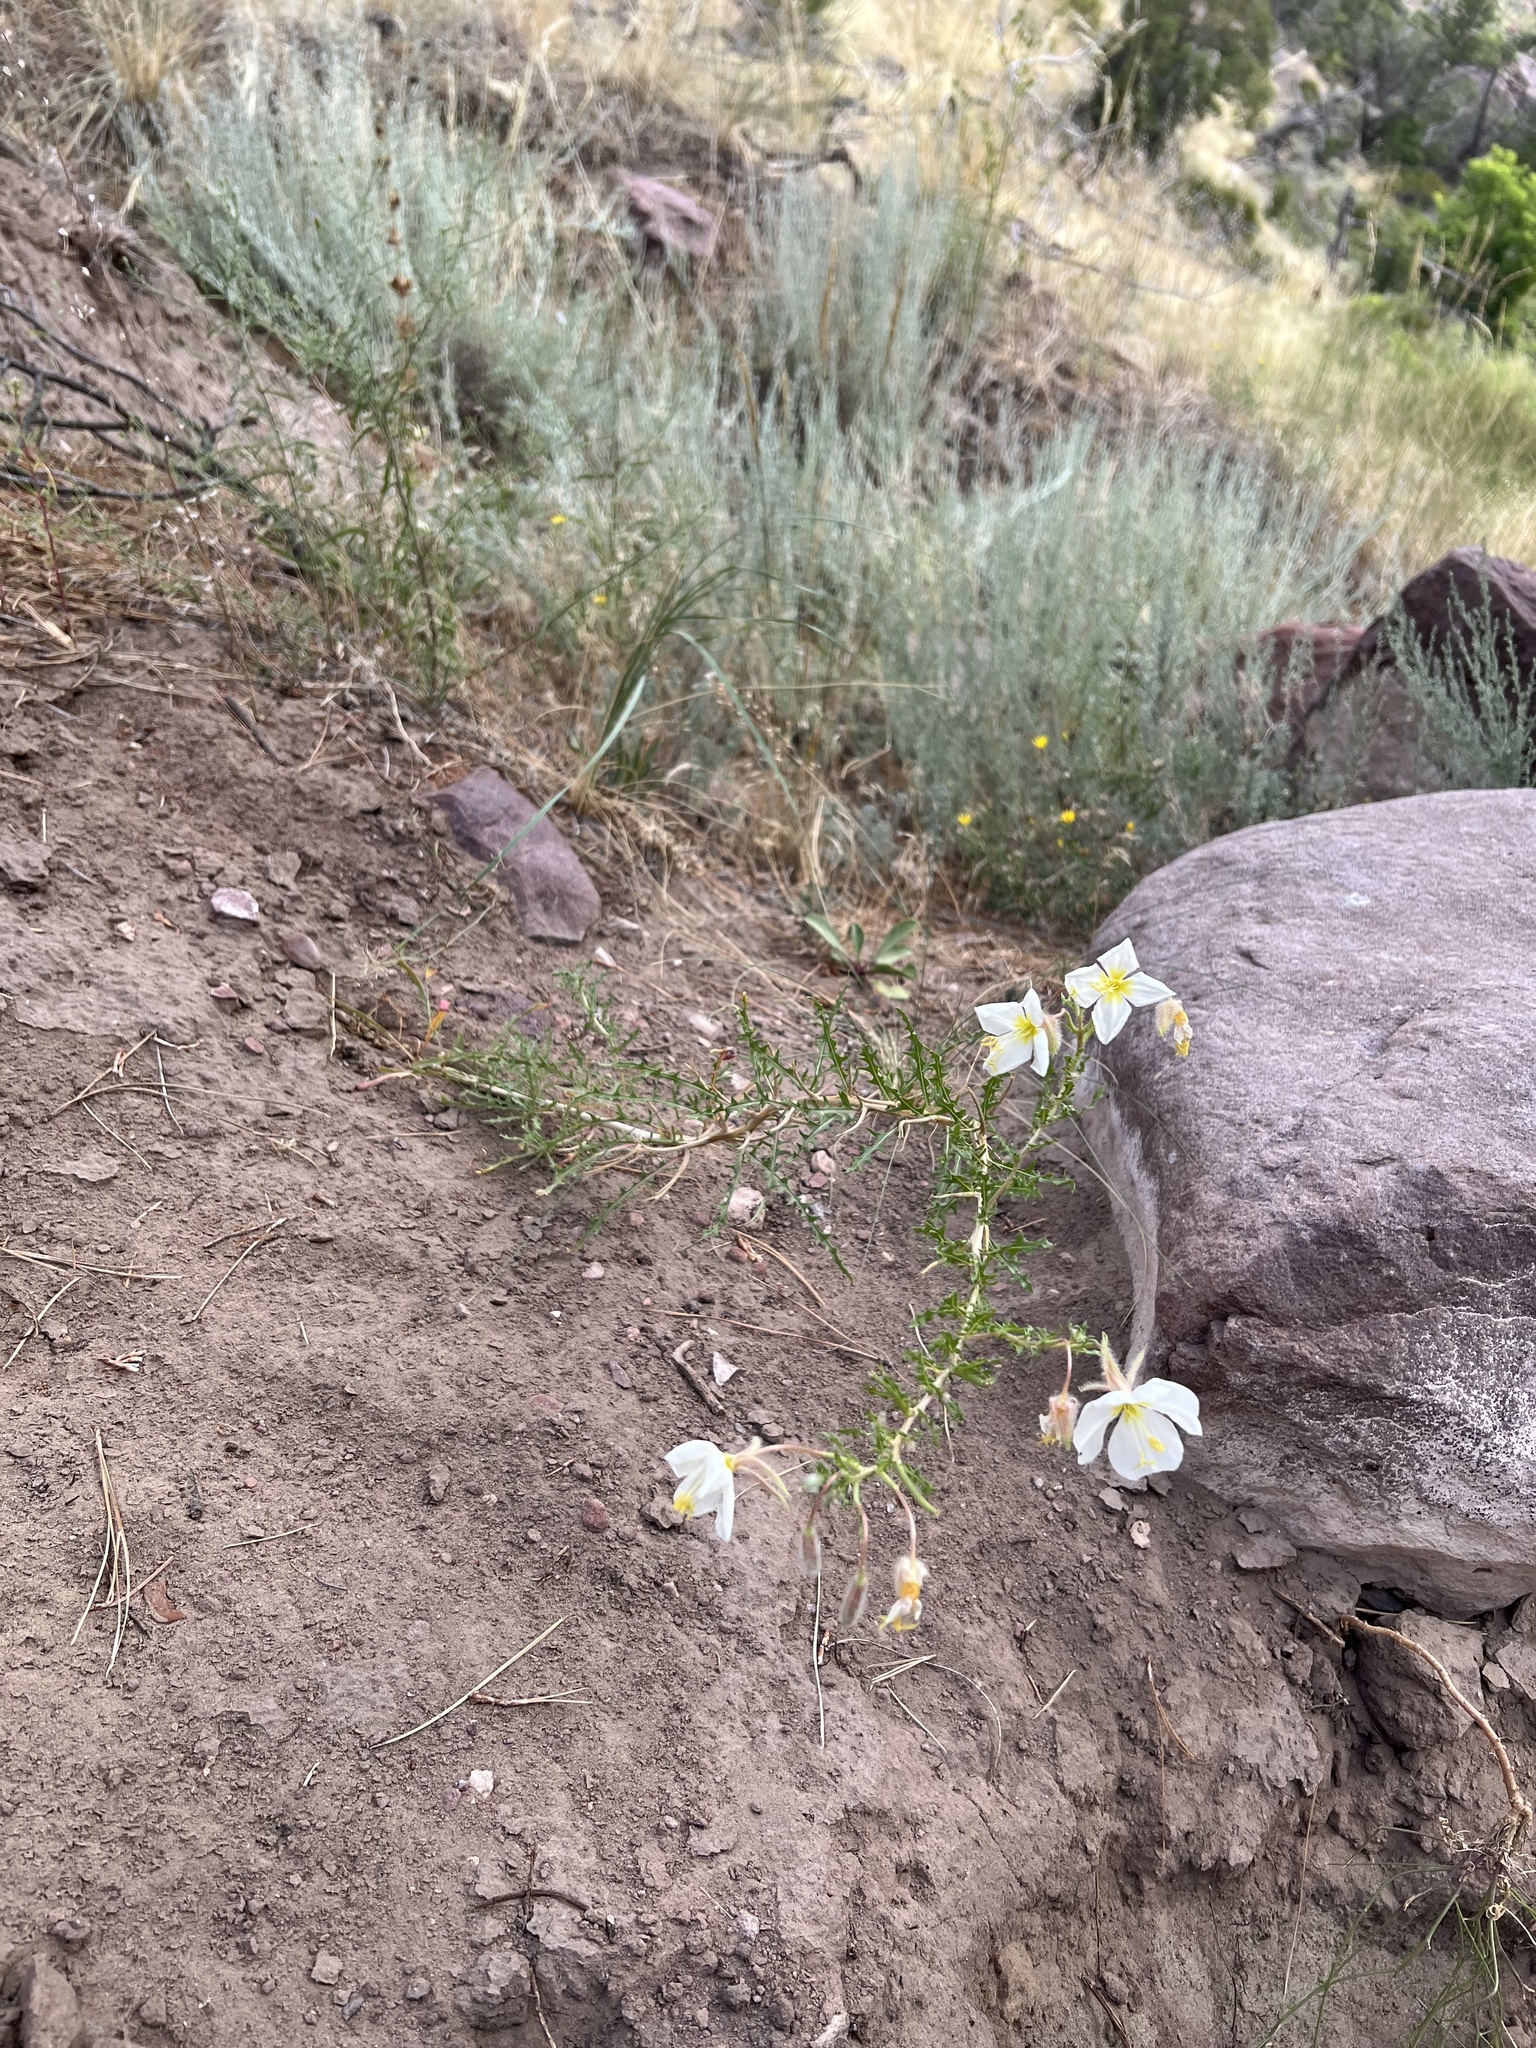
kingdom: Plantae
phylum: Tracheophyta
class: Magnoliopsida
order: Myrtales
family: Onagraceae
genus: Oenothera
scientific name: Oenothera pallida
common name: Pale evening-primrose
